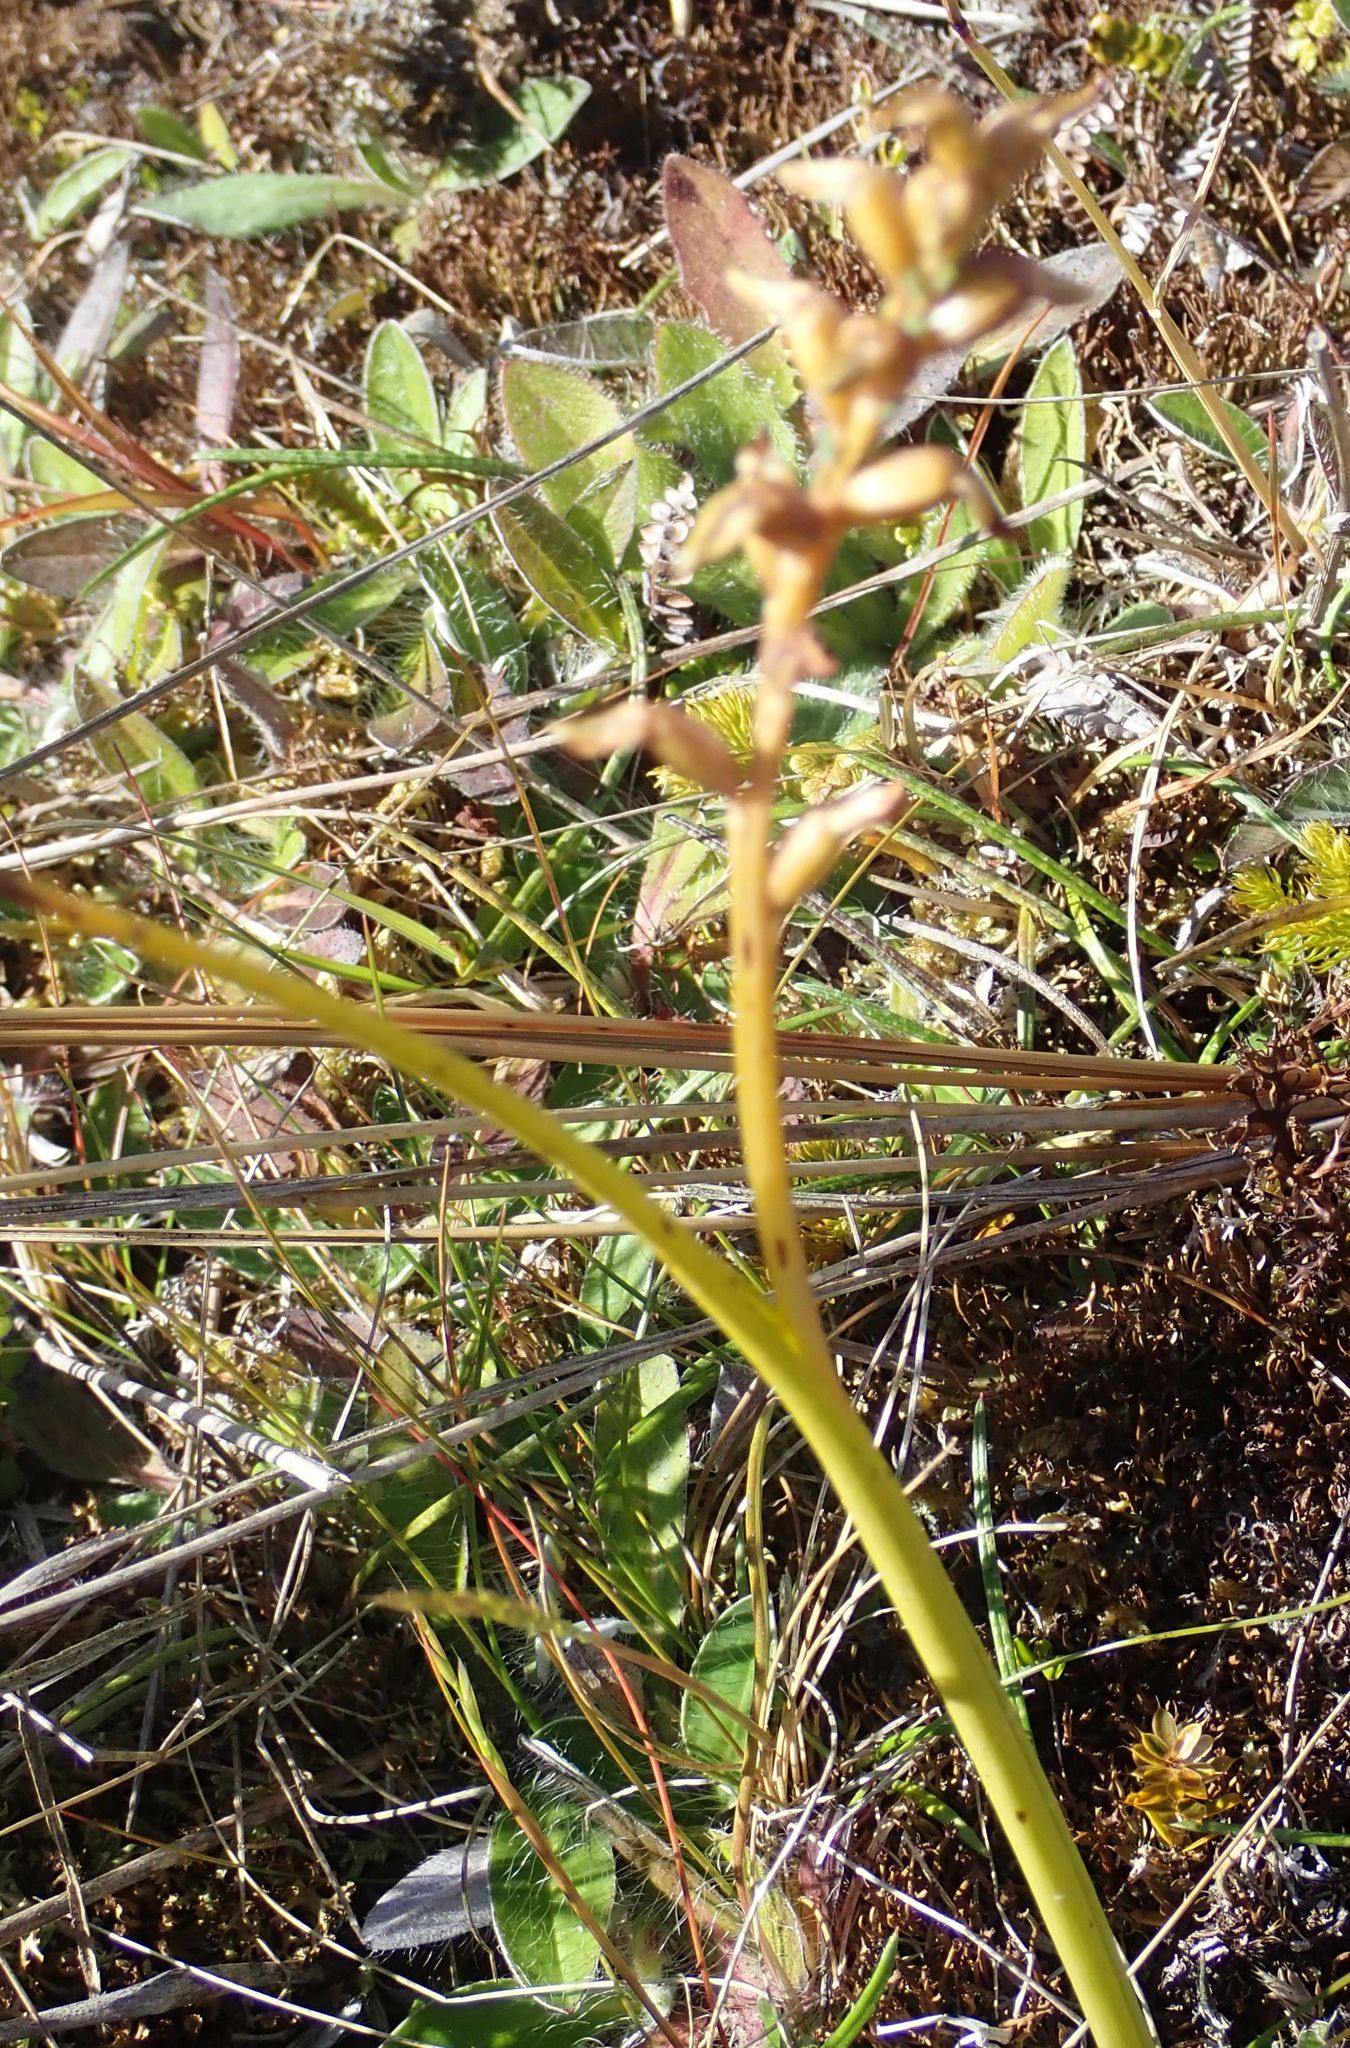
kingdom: Plantae
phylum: Tracheophyta
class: Liliopsida
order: Asparagales
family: Orchidaceae
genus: Prasophyllum
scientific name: Prasophyllum colensoi
